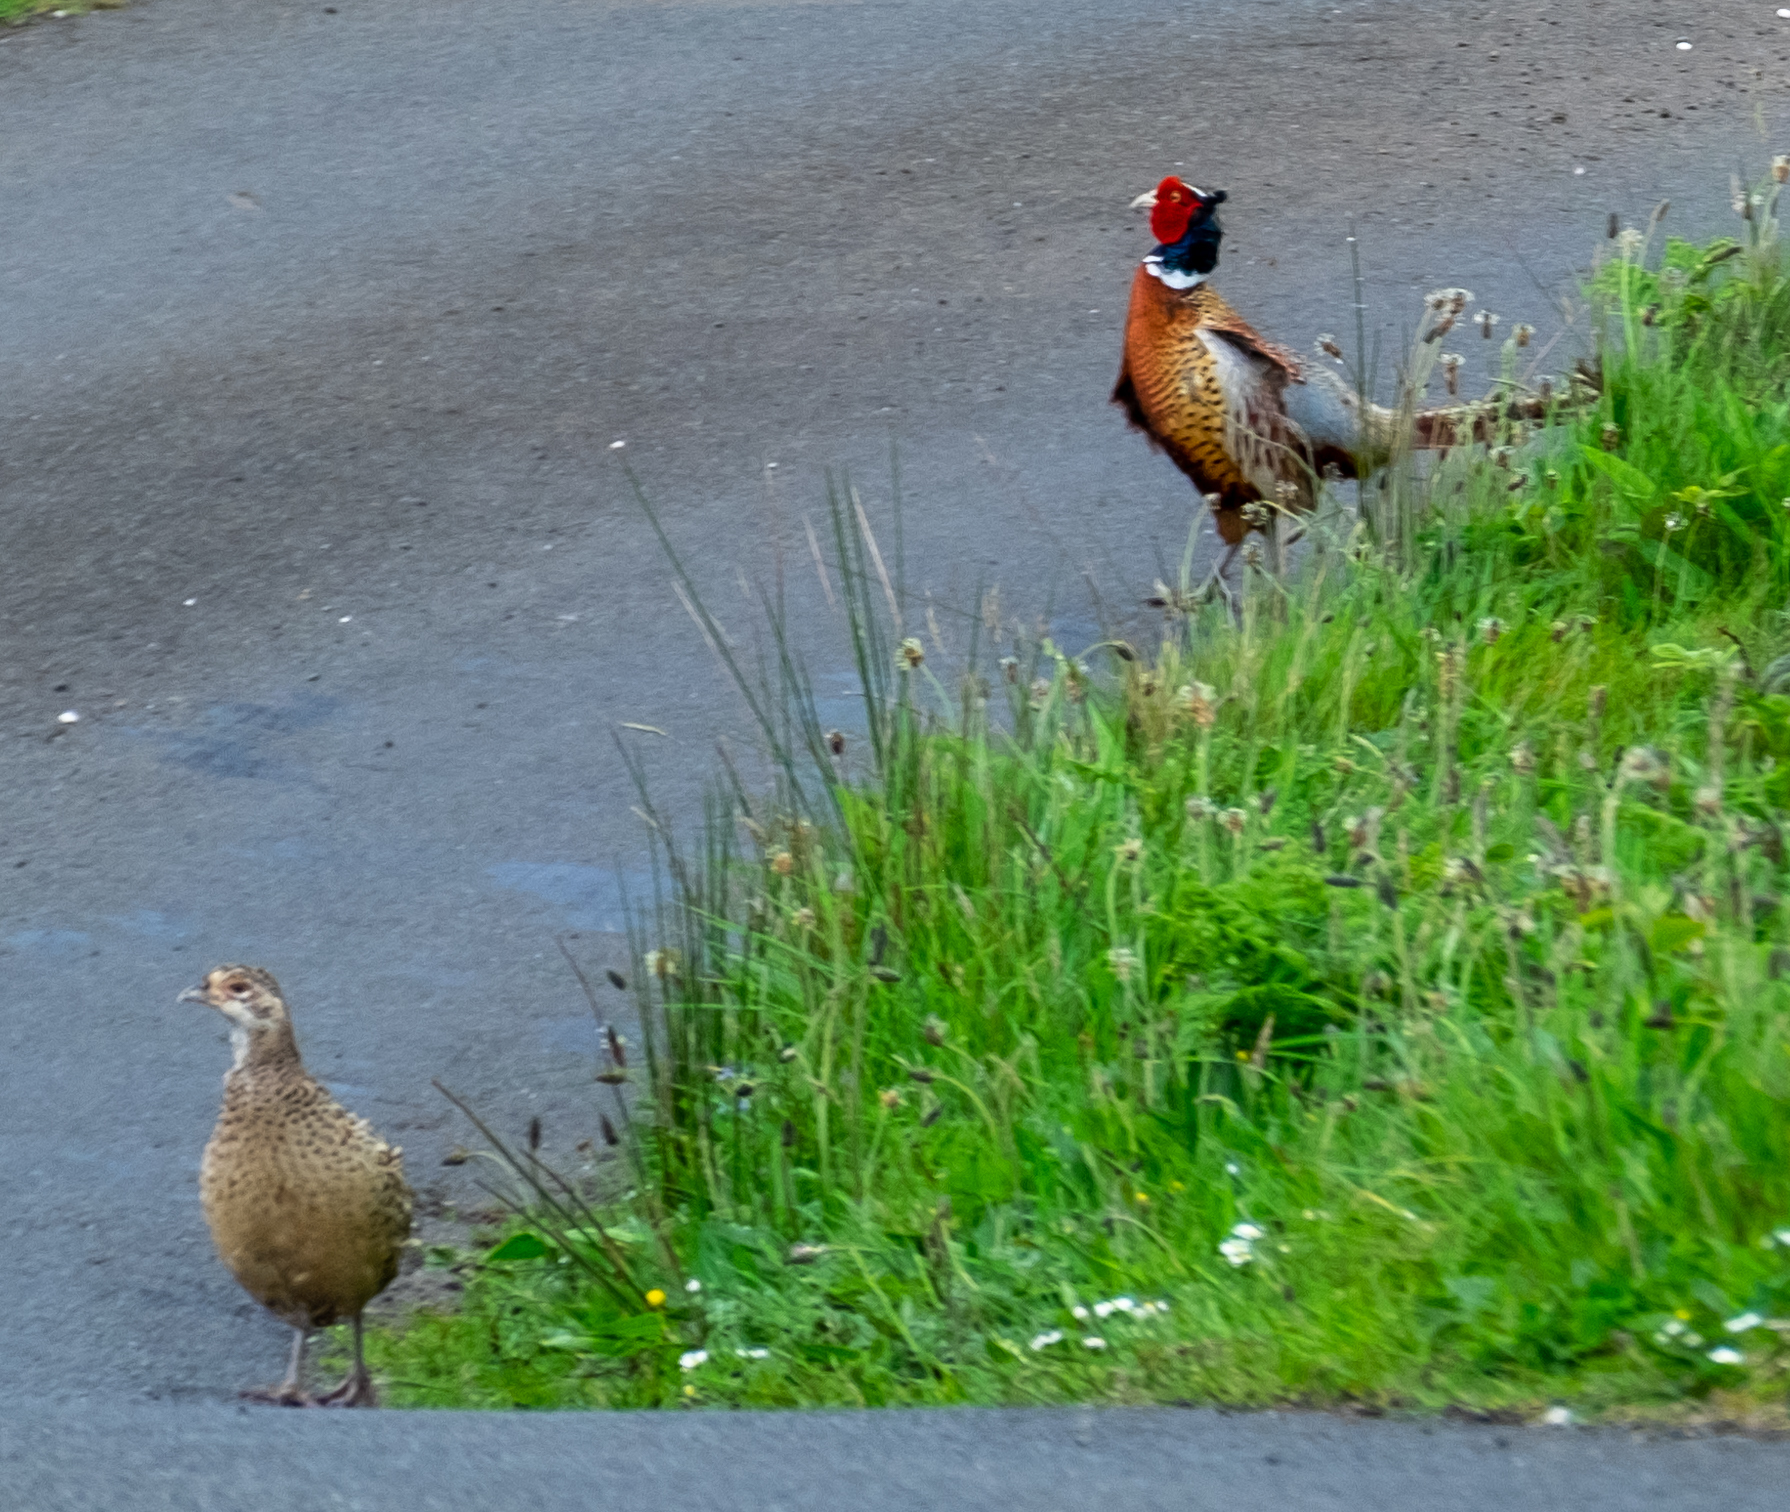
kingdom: Animalia
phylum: Chordata
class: Aves
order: Galliformes
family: Phasianidae
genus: Phasianus
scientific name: Phasianus colchicus
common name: Common pheasant
